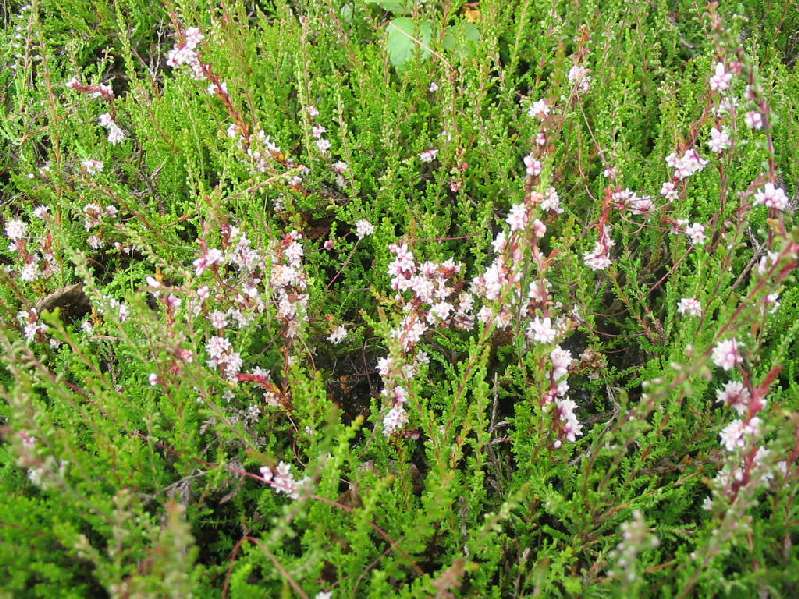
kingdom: Plantae
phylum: Tracheophyta
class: Magnoliopsida
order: Solanales
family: Convolvulaceae
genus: Cuscuta
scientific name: Cuscuta epithymum
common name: Clover dodder
